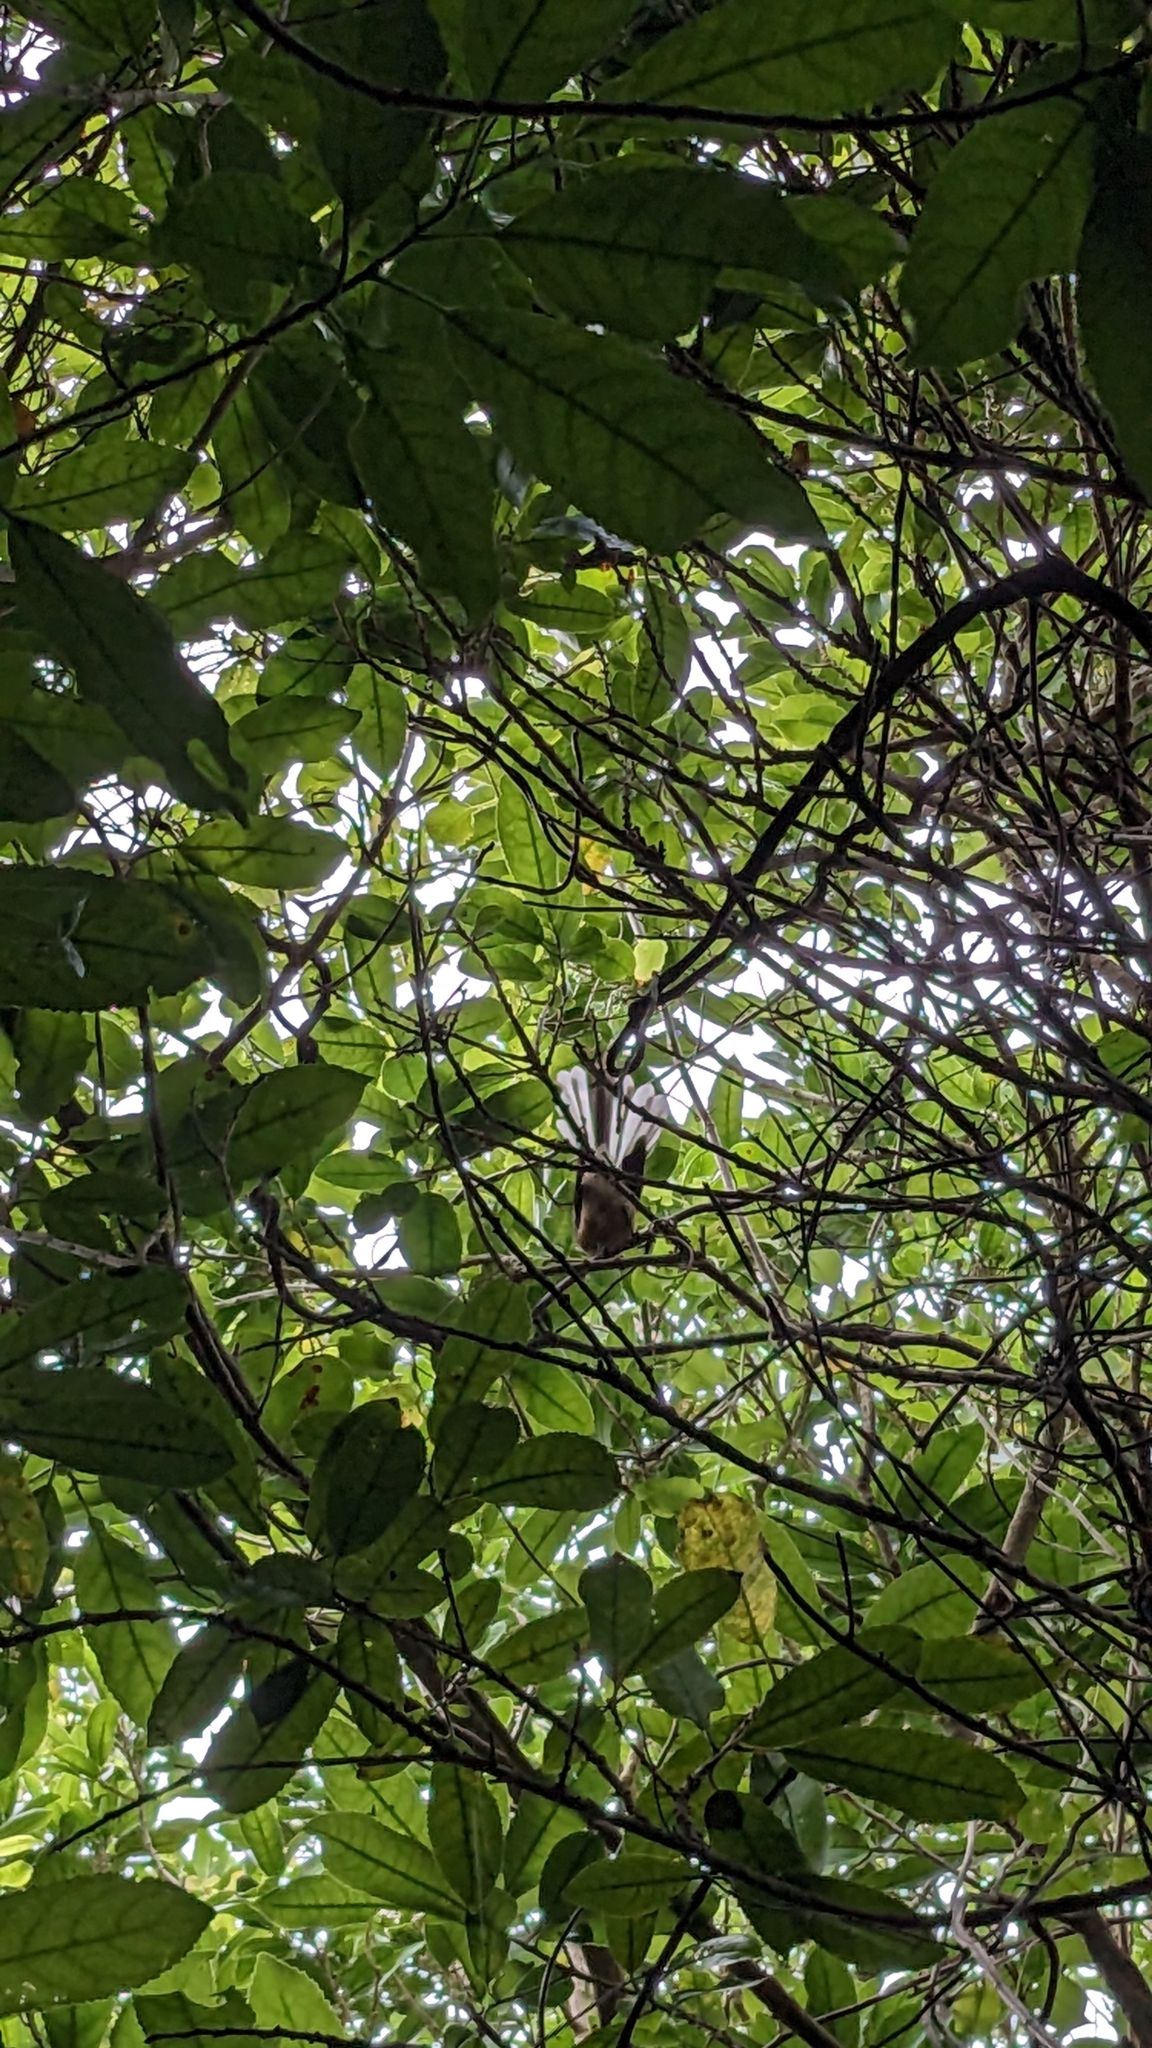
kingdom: Animalia
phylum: Chordata
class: Aves
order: Passeriformes
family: Rhipiduridae
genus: Rhipidura
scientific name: Rhipidura fuliginosa
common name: New zealand fantail
